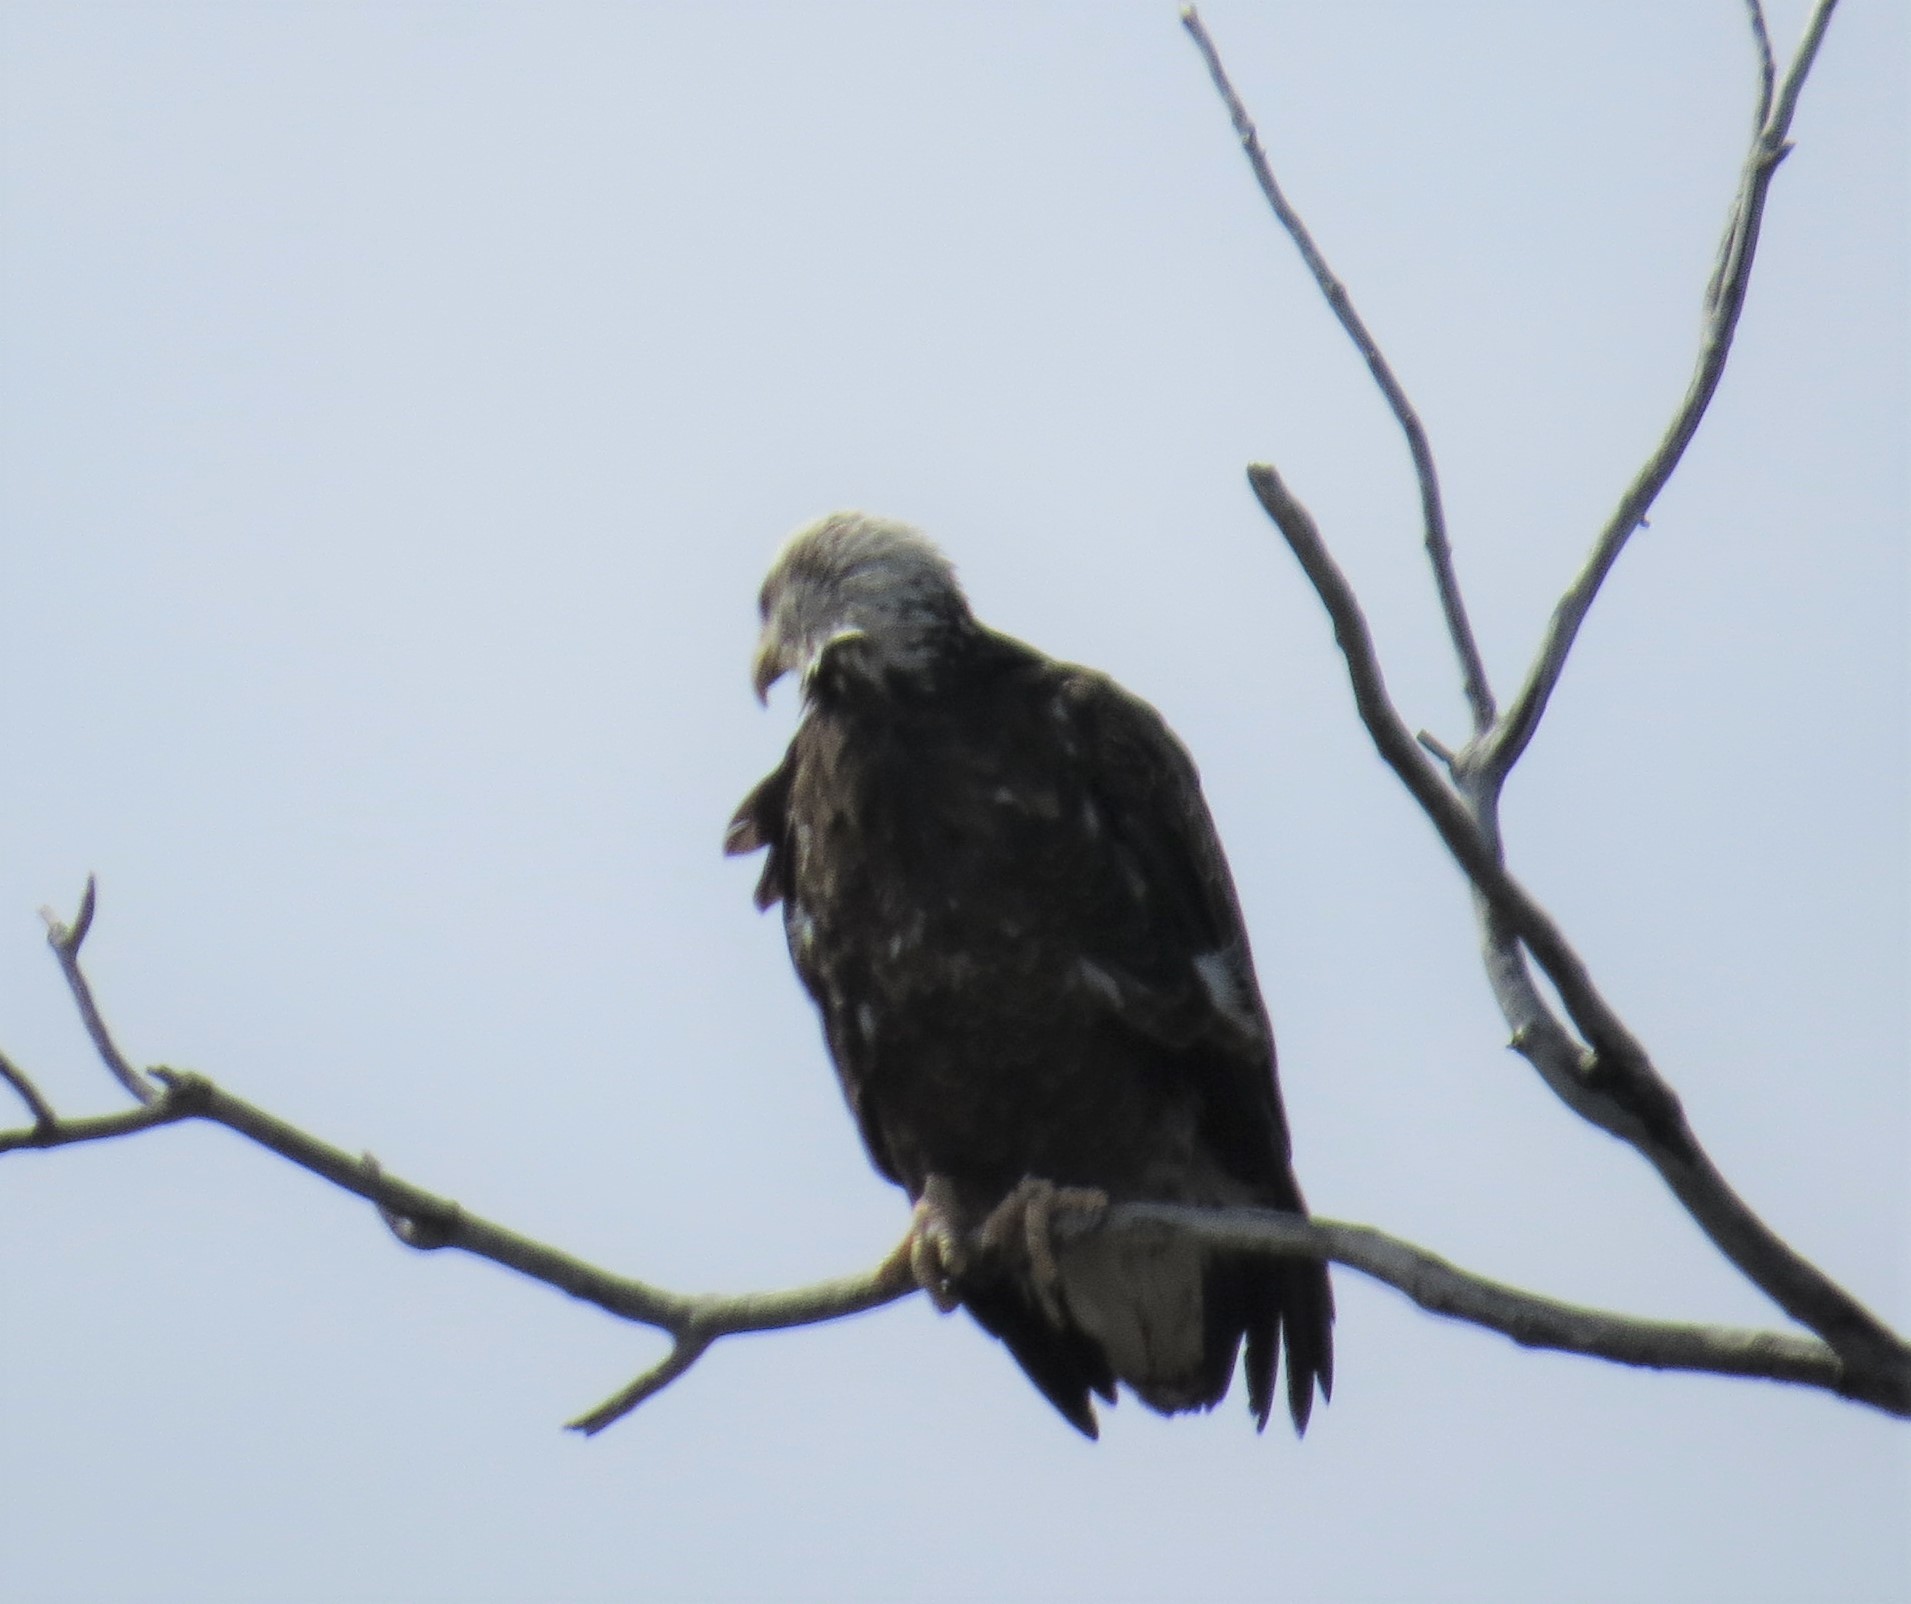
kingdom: Animalia
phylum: Chordata
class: Aves
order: Accipitriformes
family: Accipitridae
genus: Haliaeetus
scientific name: Haliaeetus leucocephalus
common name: Bald eagle
